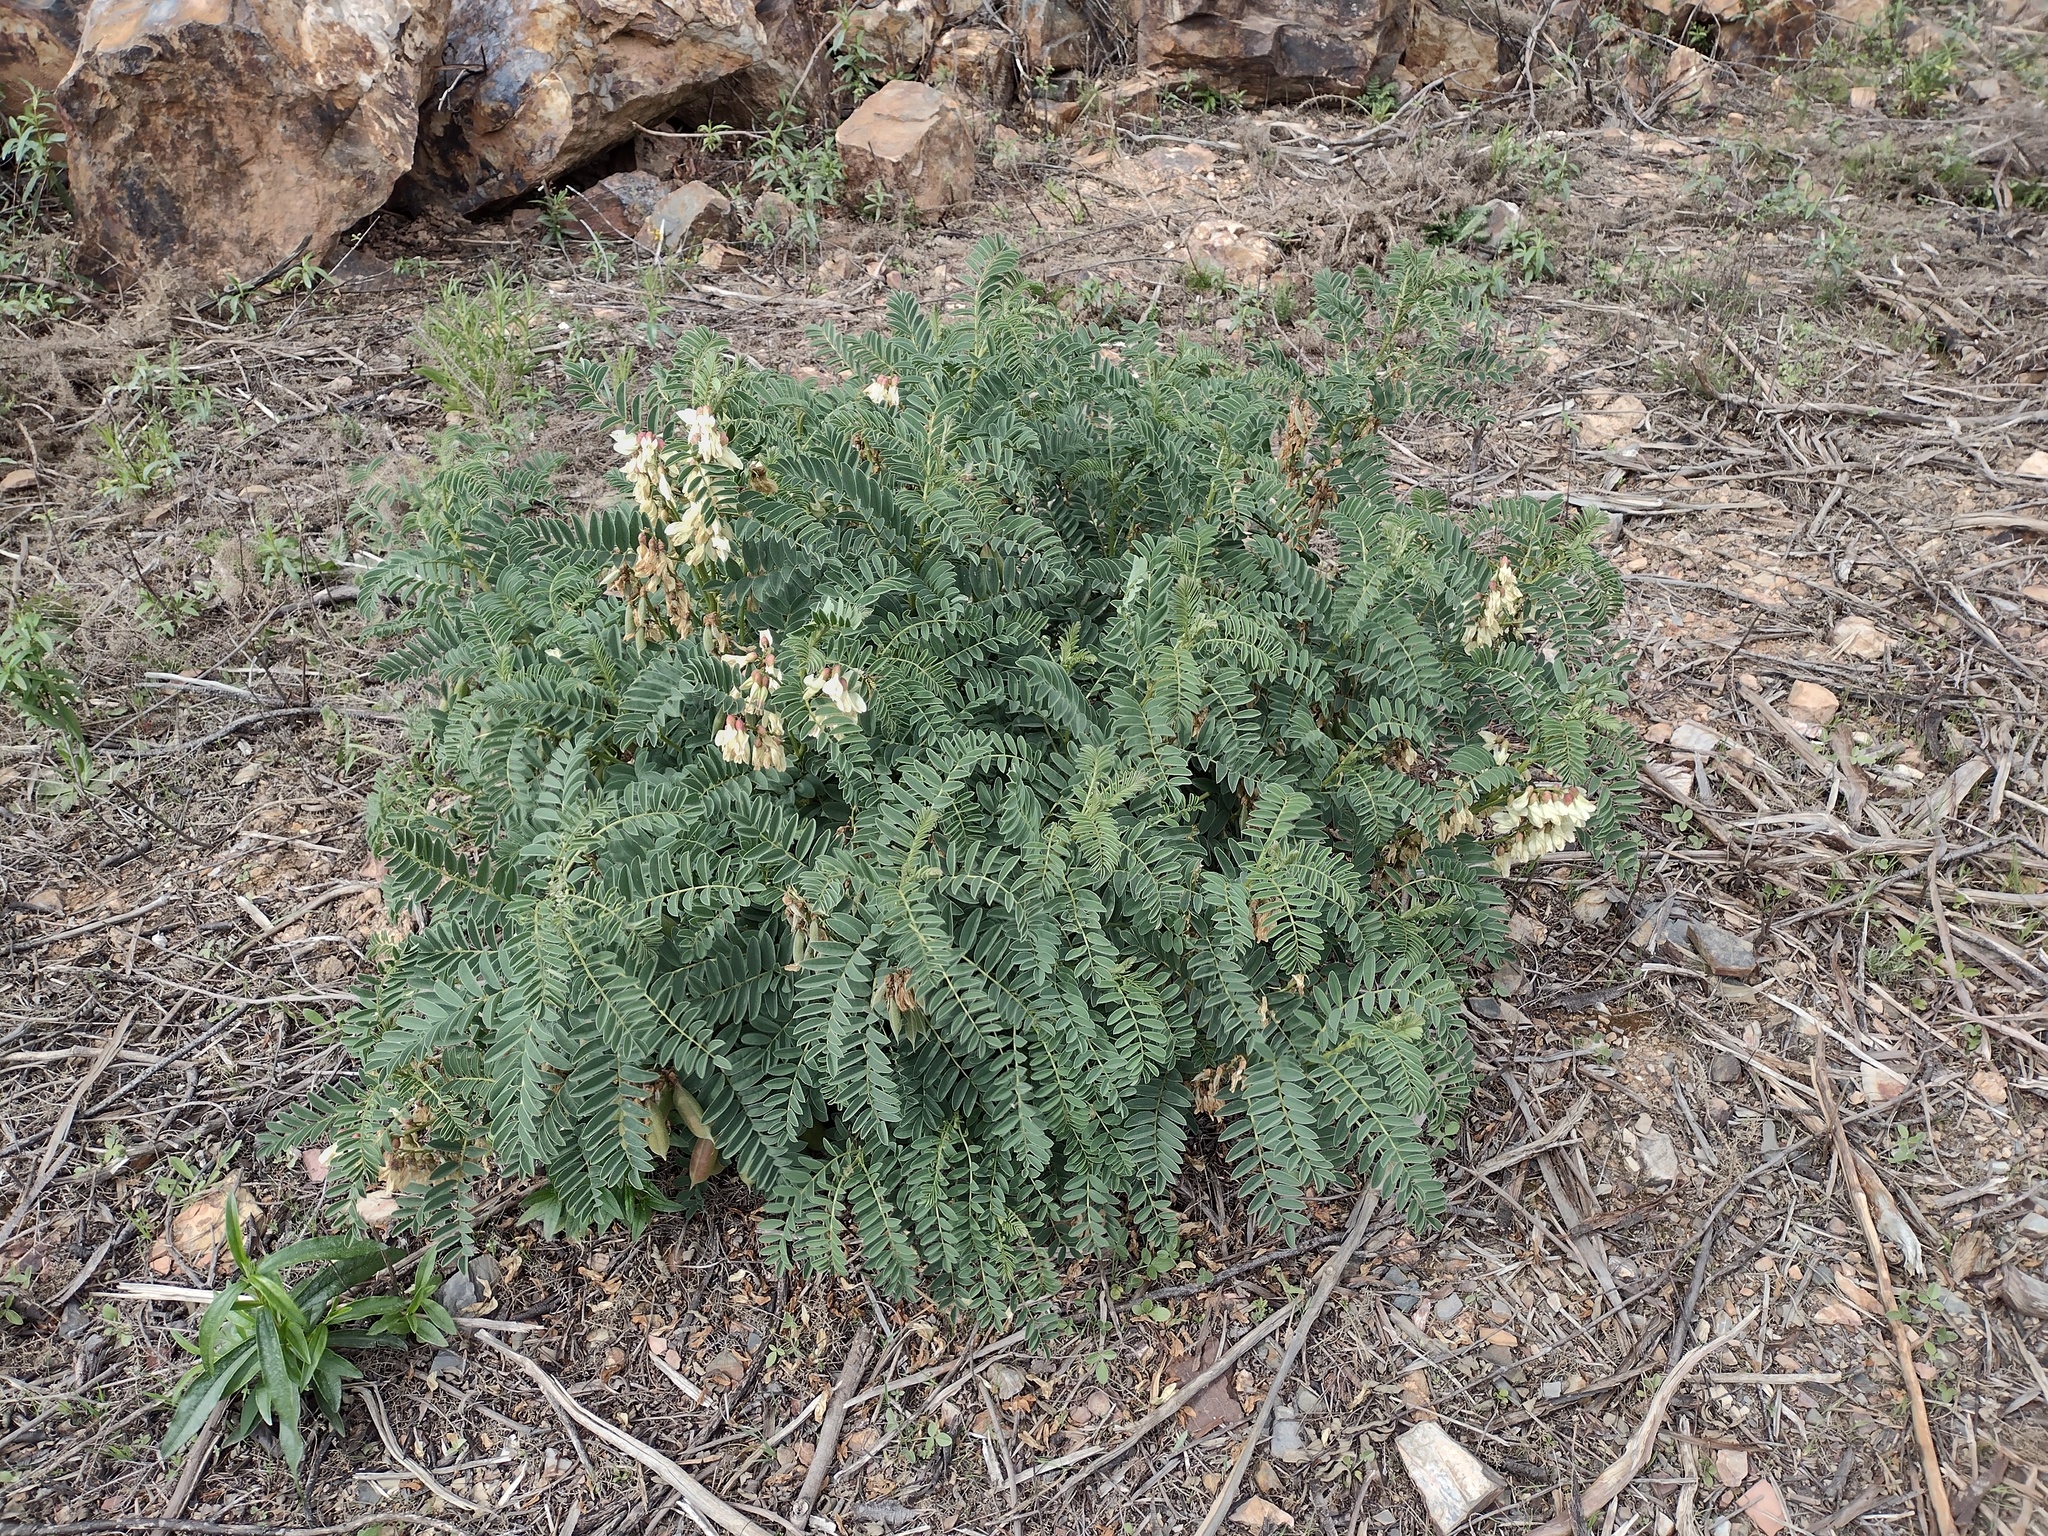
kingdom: Plantae
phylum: Tracheophyta
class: Magnoliopsida
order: Fabales
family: Fabaceae
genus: Erophaca
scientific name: Erophaca baetica
